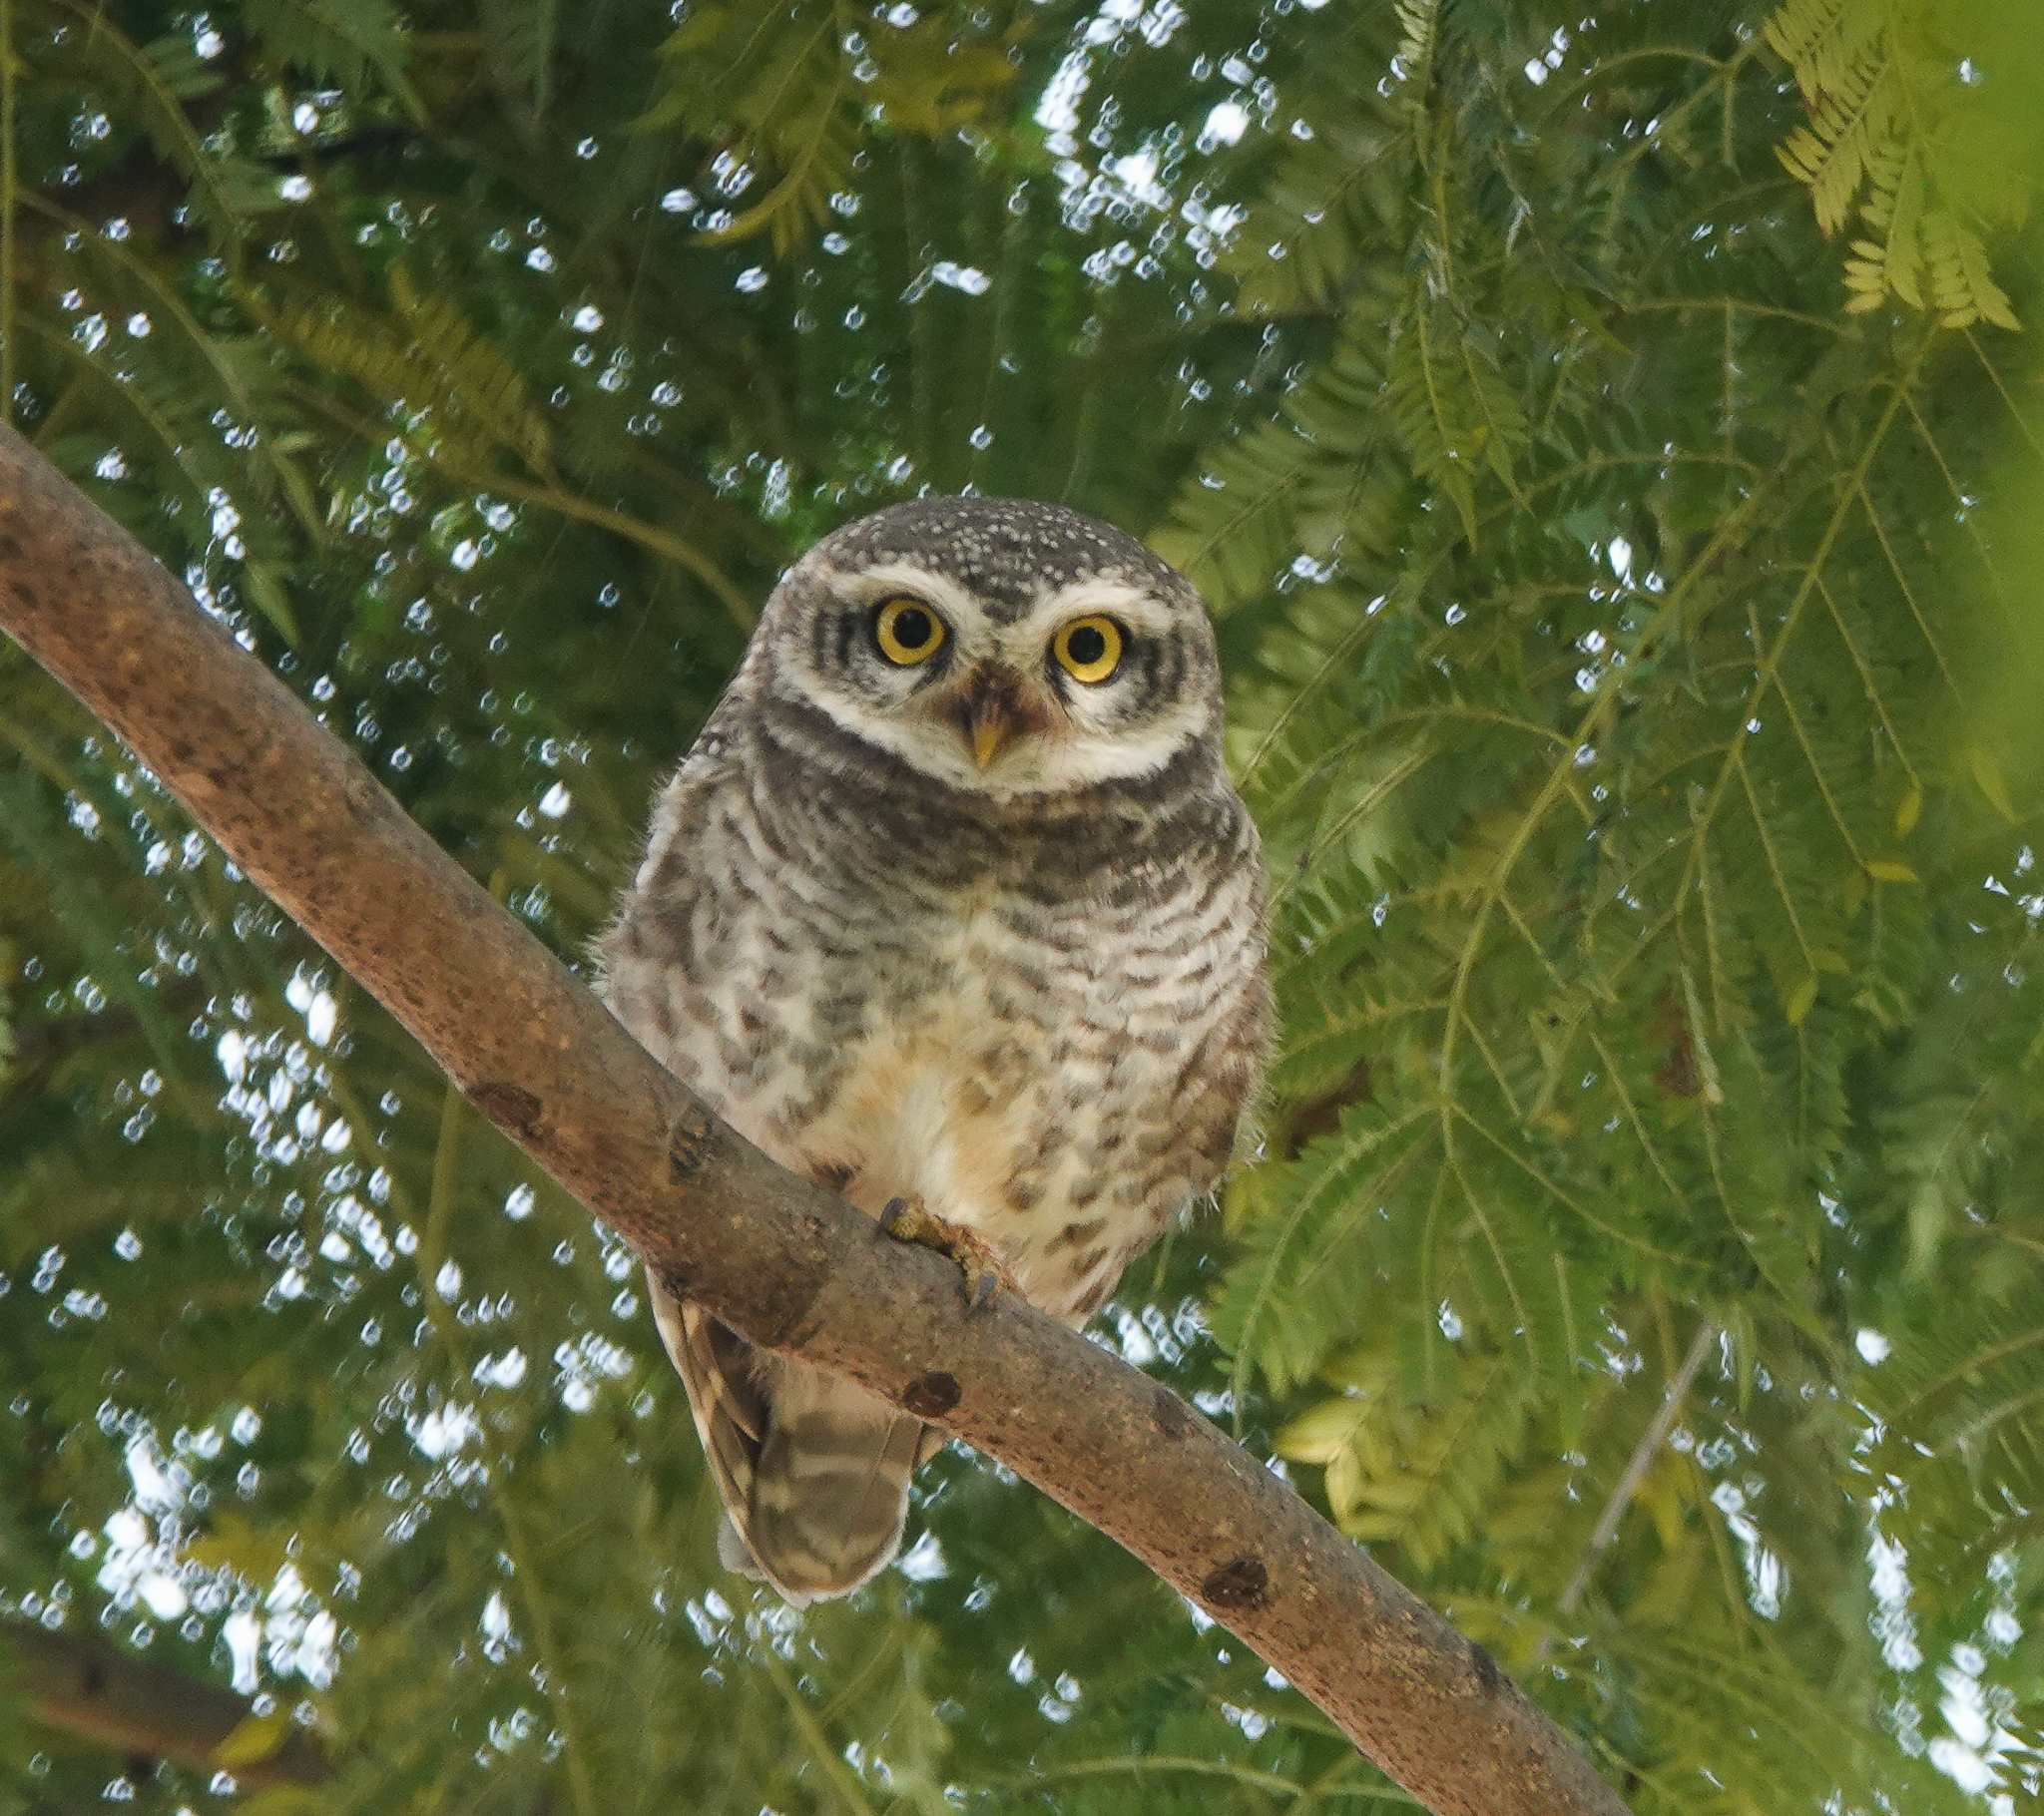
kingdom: Animalia
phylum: Chordata
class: Aves
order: Strigiformes
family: Strigidae
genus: Athene
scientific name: Athene brama
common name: Spotted owlet
